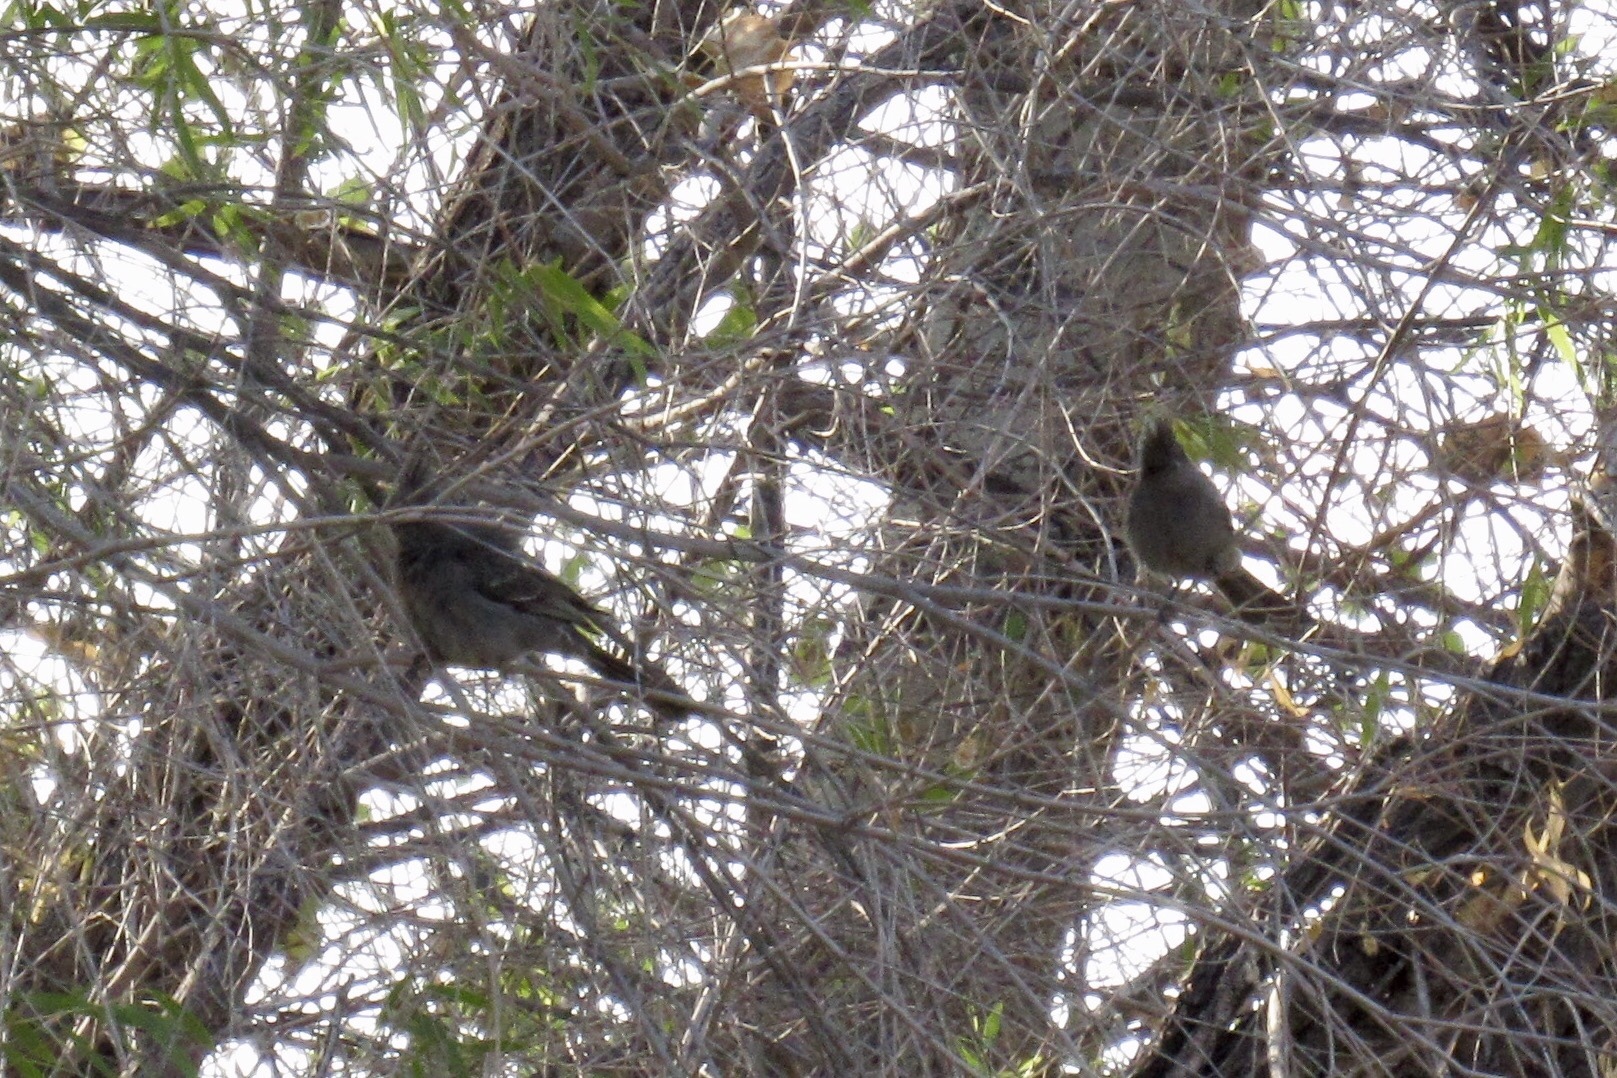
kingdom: Animalia
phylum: Chordata
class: Aves
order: Passeriformes
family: Ptilogonatidae
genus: Phainopepla
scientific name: Phainopepla nitens
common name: Phainopepla
